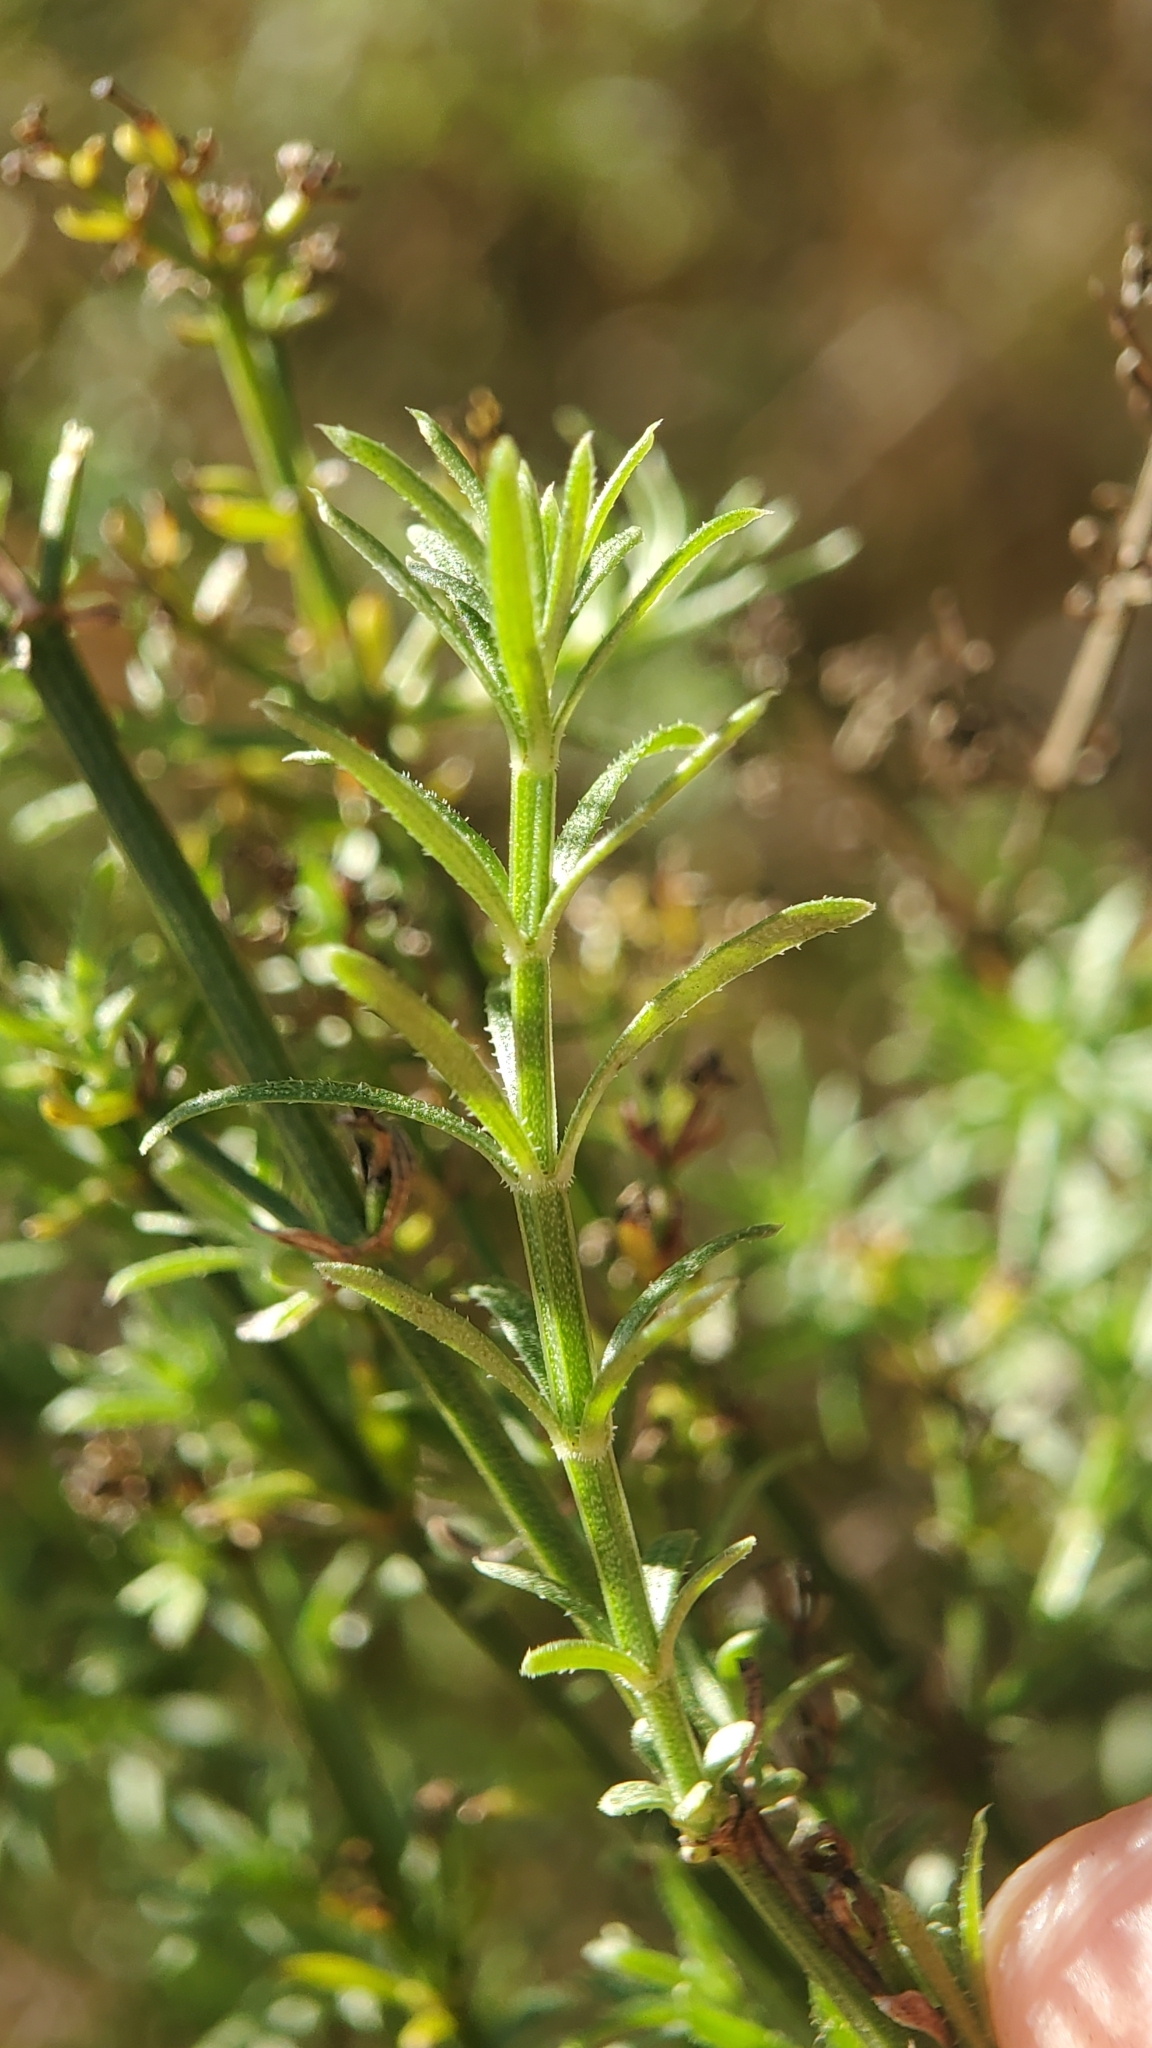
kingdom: Plantae
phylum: Tracheophyta
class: Magnoliopsida
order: Gentianales
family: Rubiaceae
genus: Galium
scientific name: Galium angustifolium
